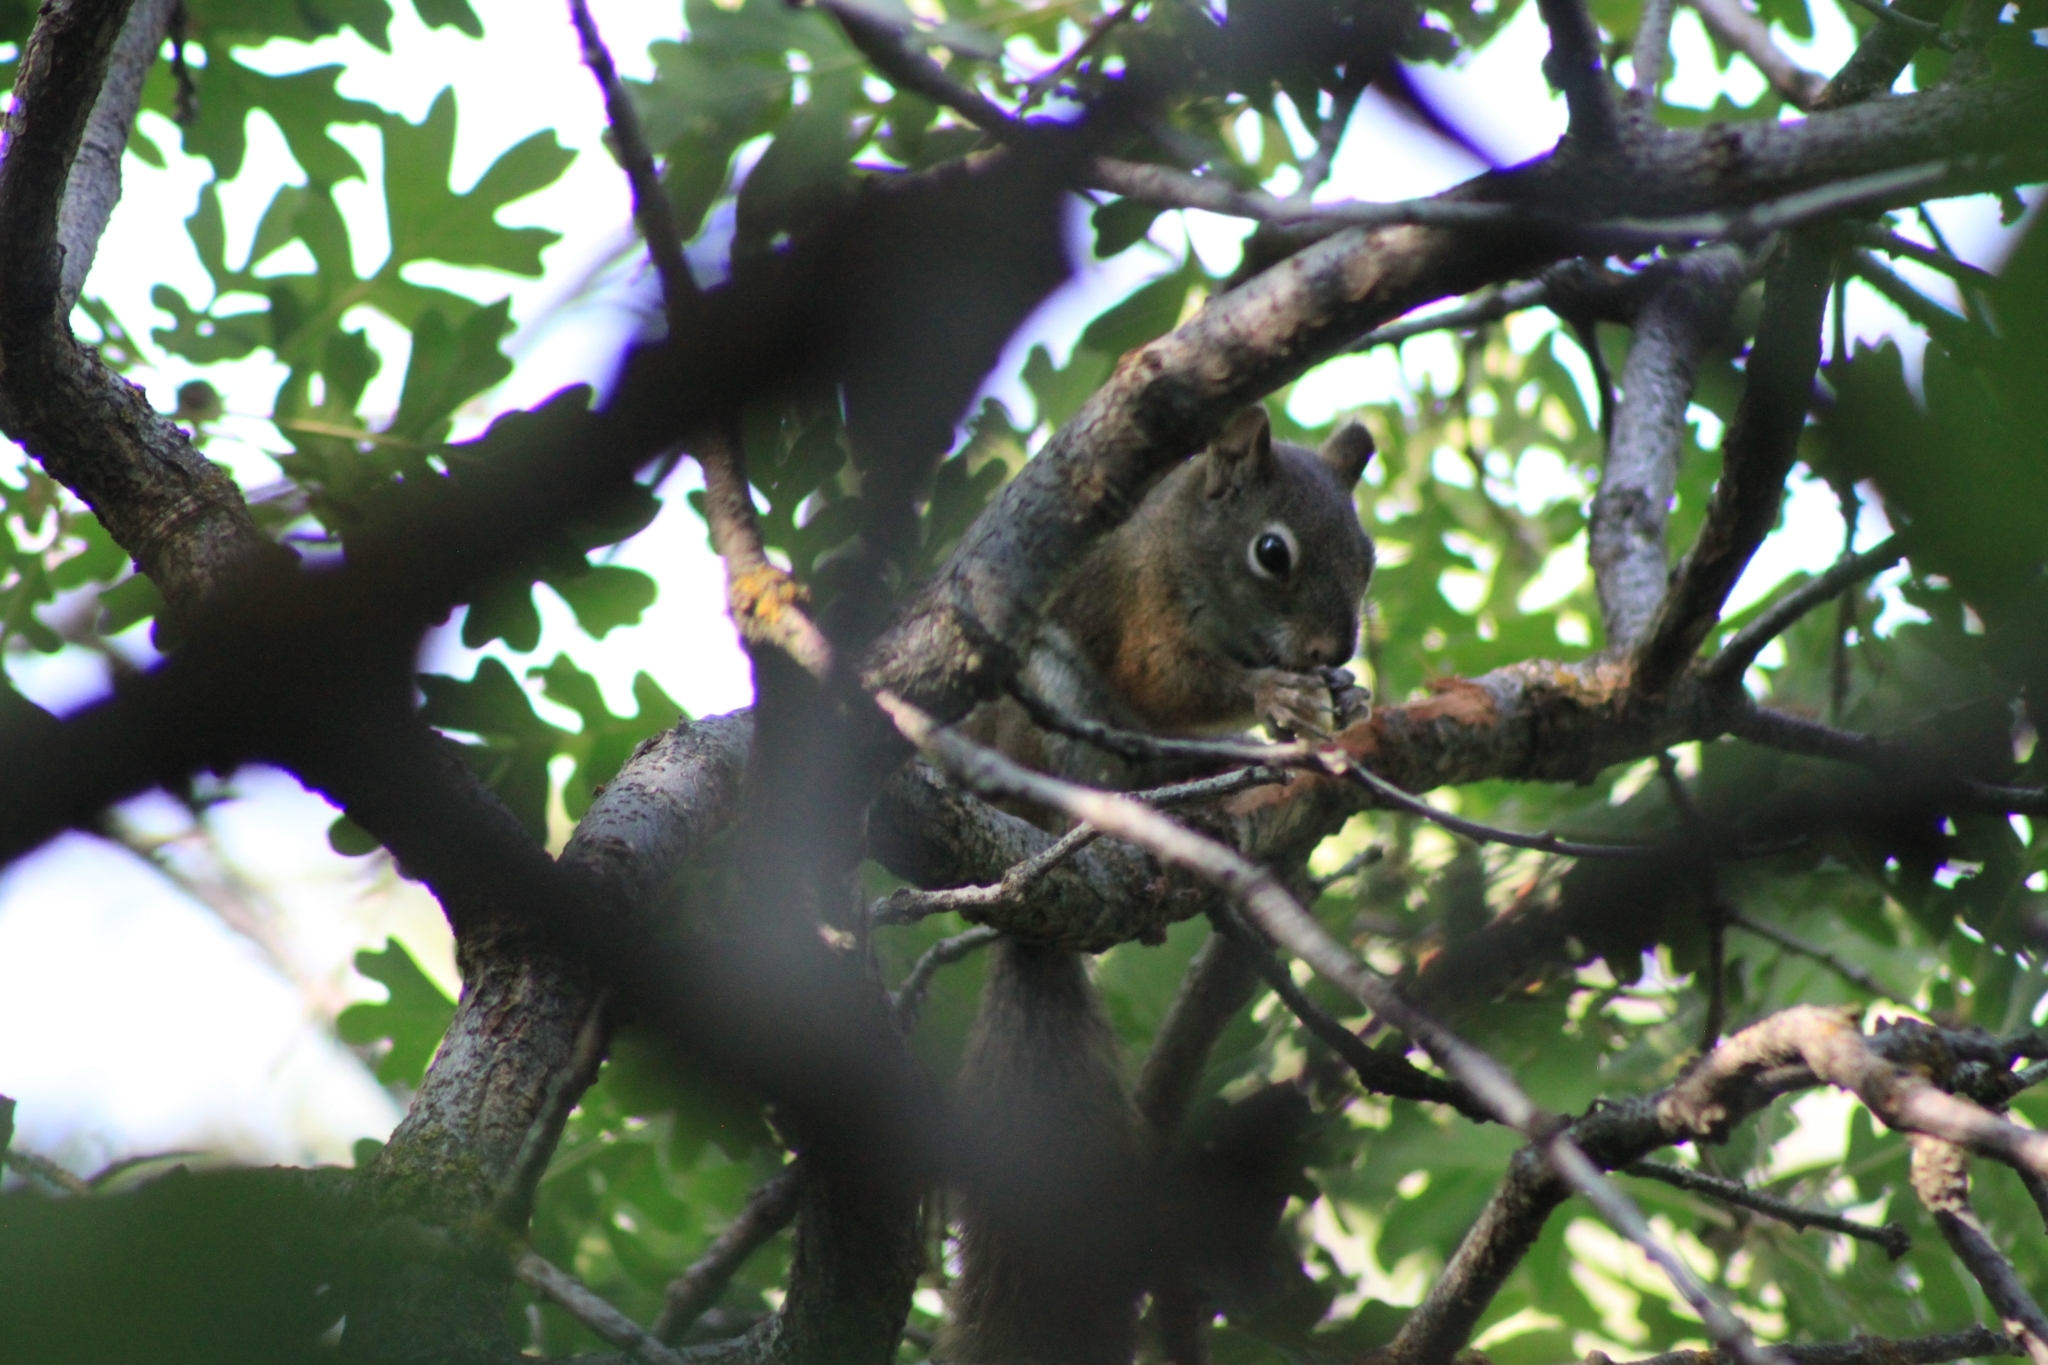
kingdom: Animalia
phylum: Chordata
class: Mammalia
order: Rodentia
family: Sciuridae
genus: Tamiasciurus
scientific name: Tamiasciurus hudsonicus
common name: Red squirrel
